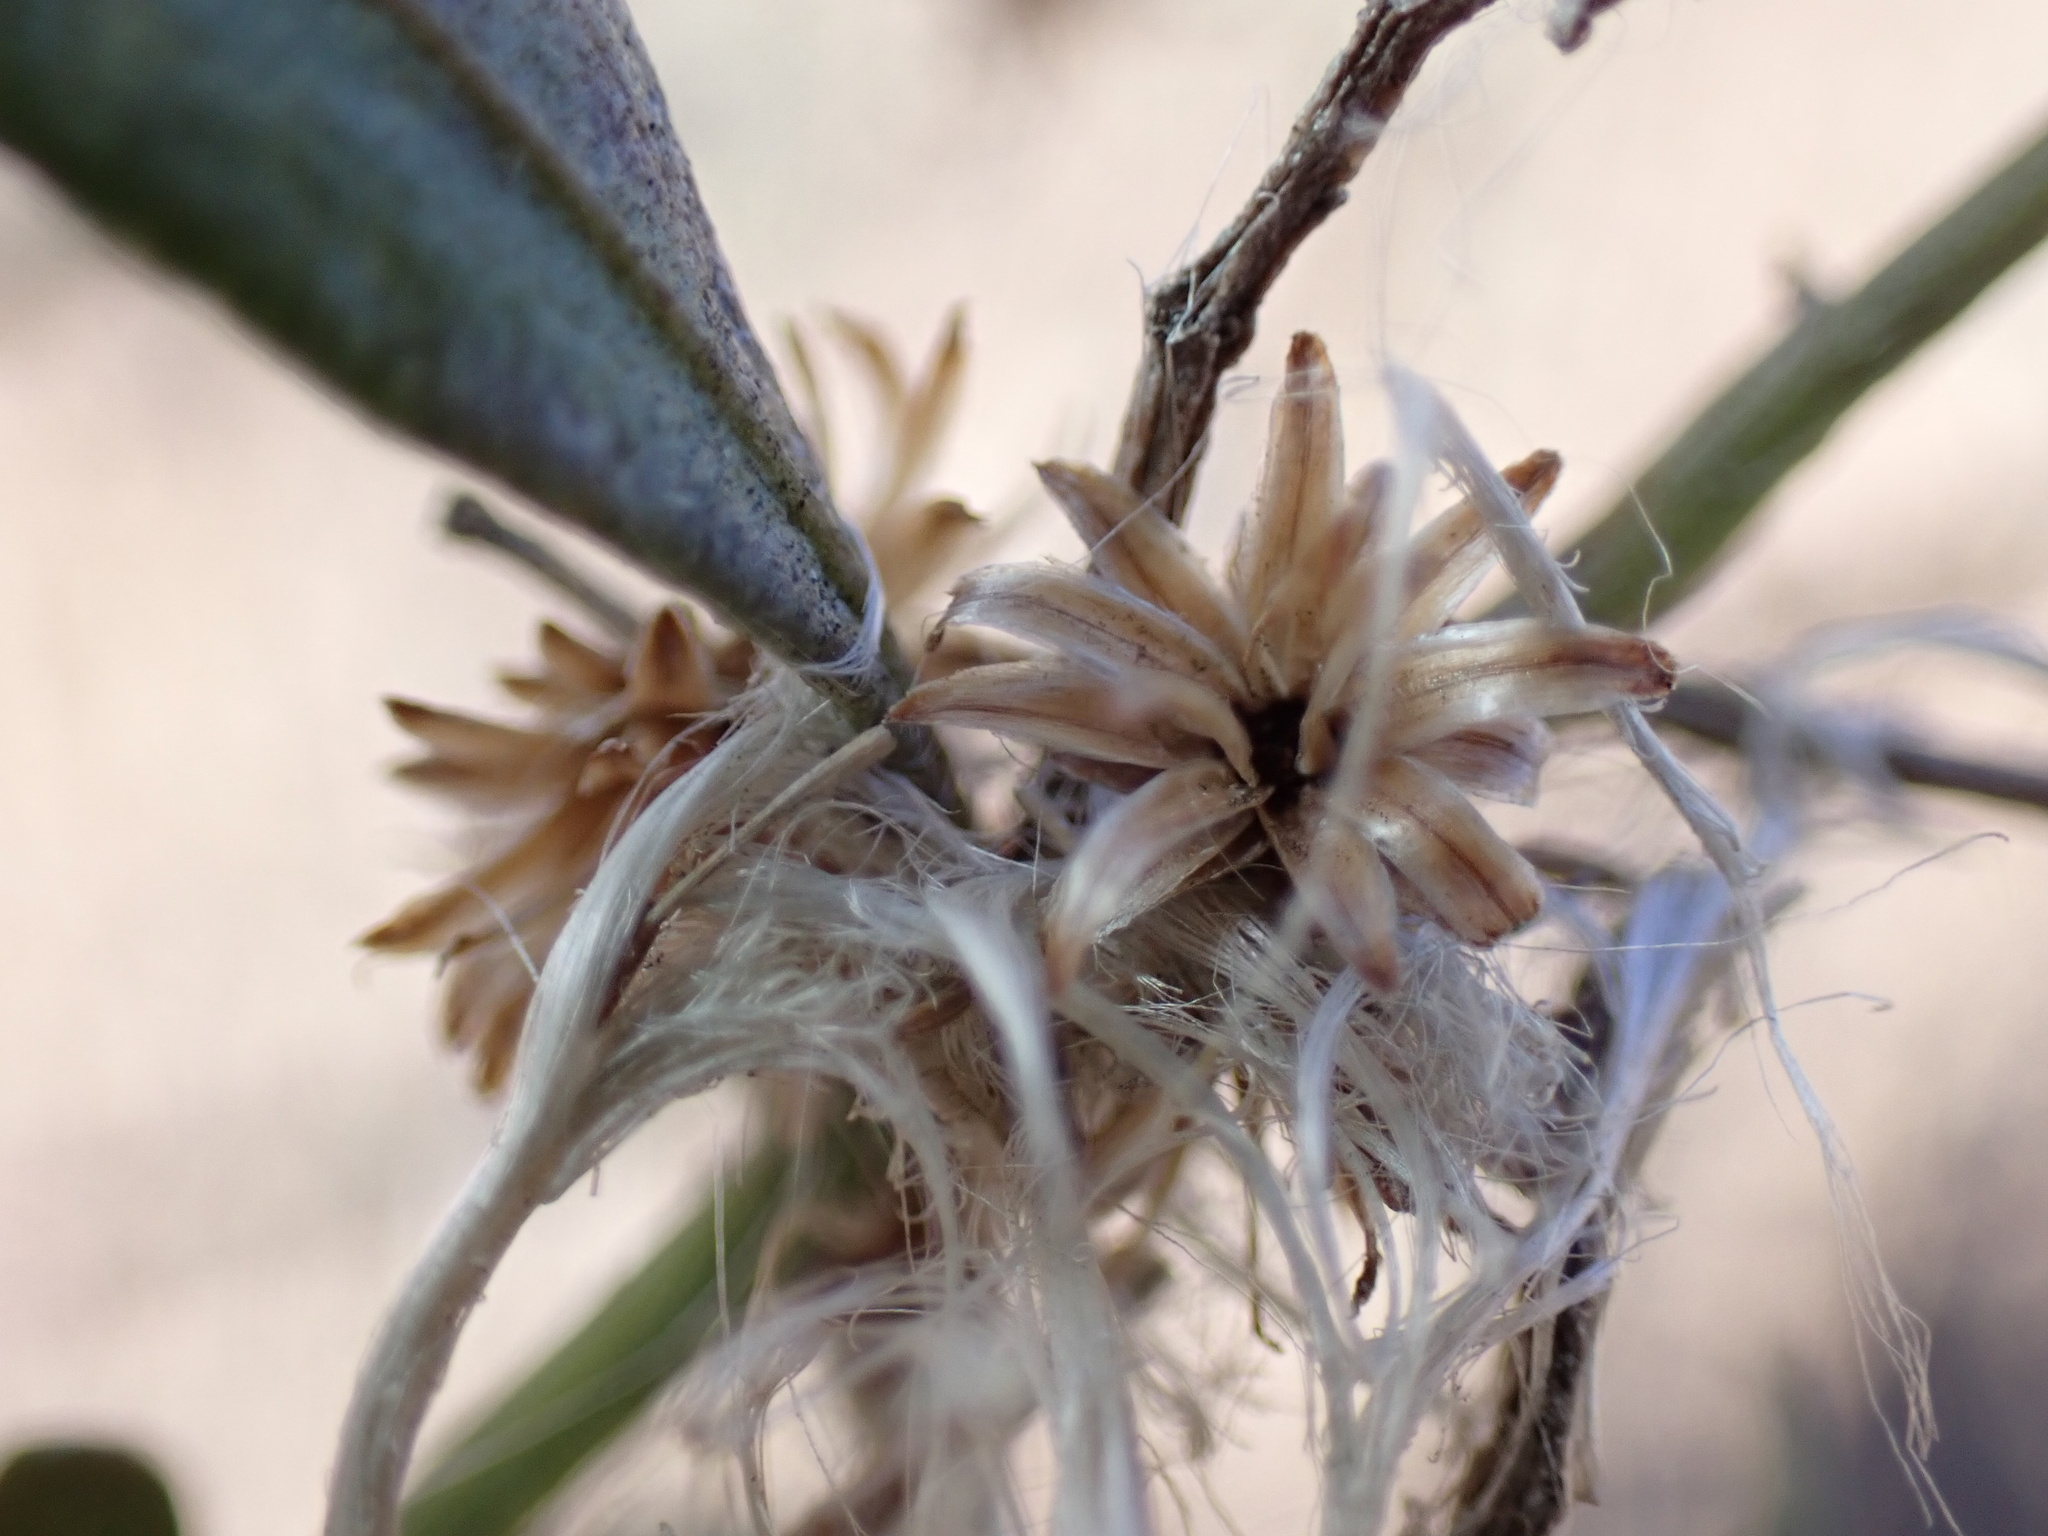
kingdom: Plantae
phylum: Tracheophyta
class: Magnoliopsida
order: Asterales
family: Asteraceae
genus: Baccharis
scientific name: Baccharis halimifolia
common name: Eastern baccharis
